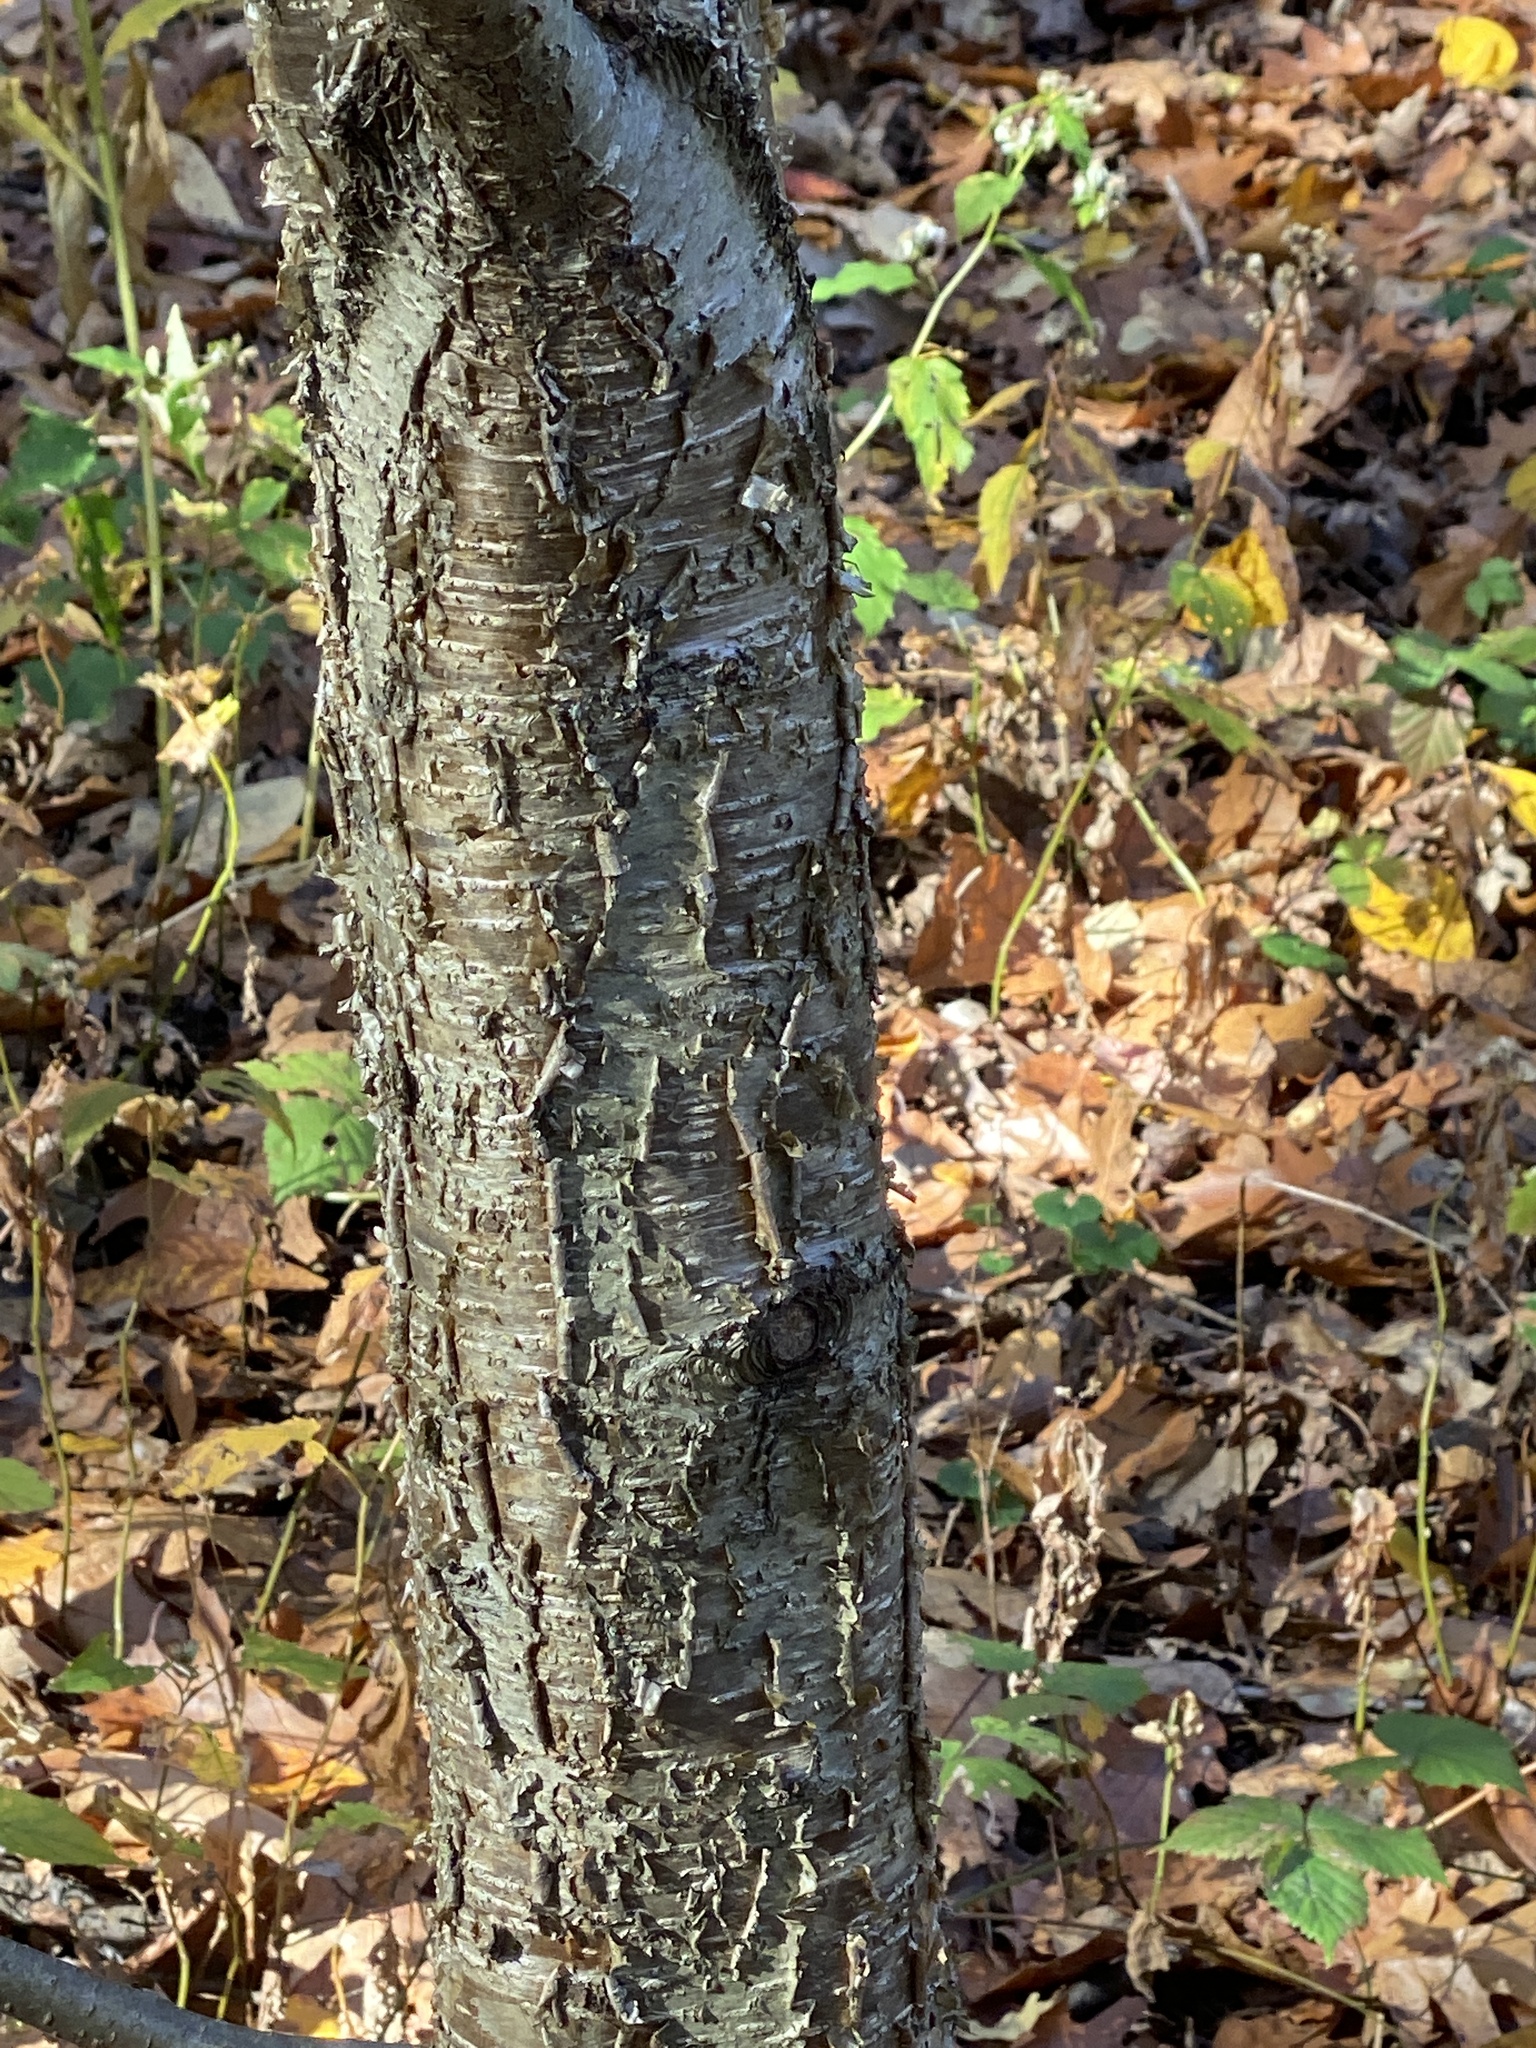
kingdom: Plantae
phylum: Tracheophyta
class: Magnoliopsida
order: Fagales
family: Betulaceae
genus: Betula
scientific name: Betula alleghaniensis
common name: Yellow birch
